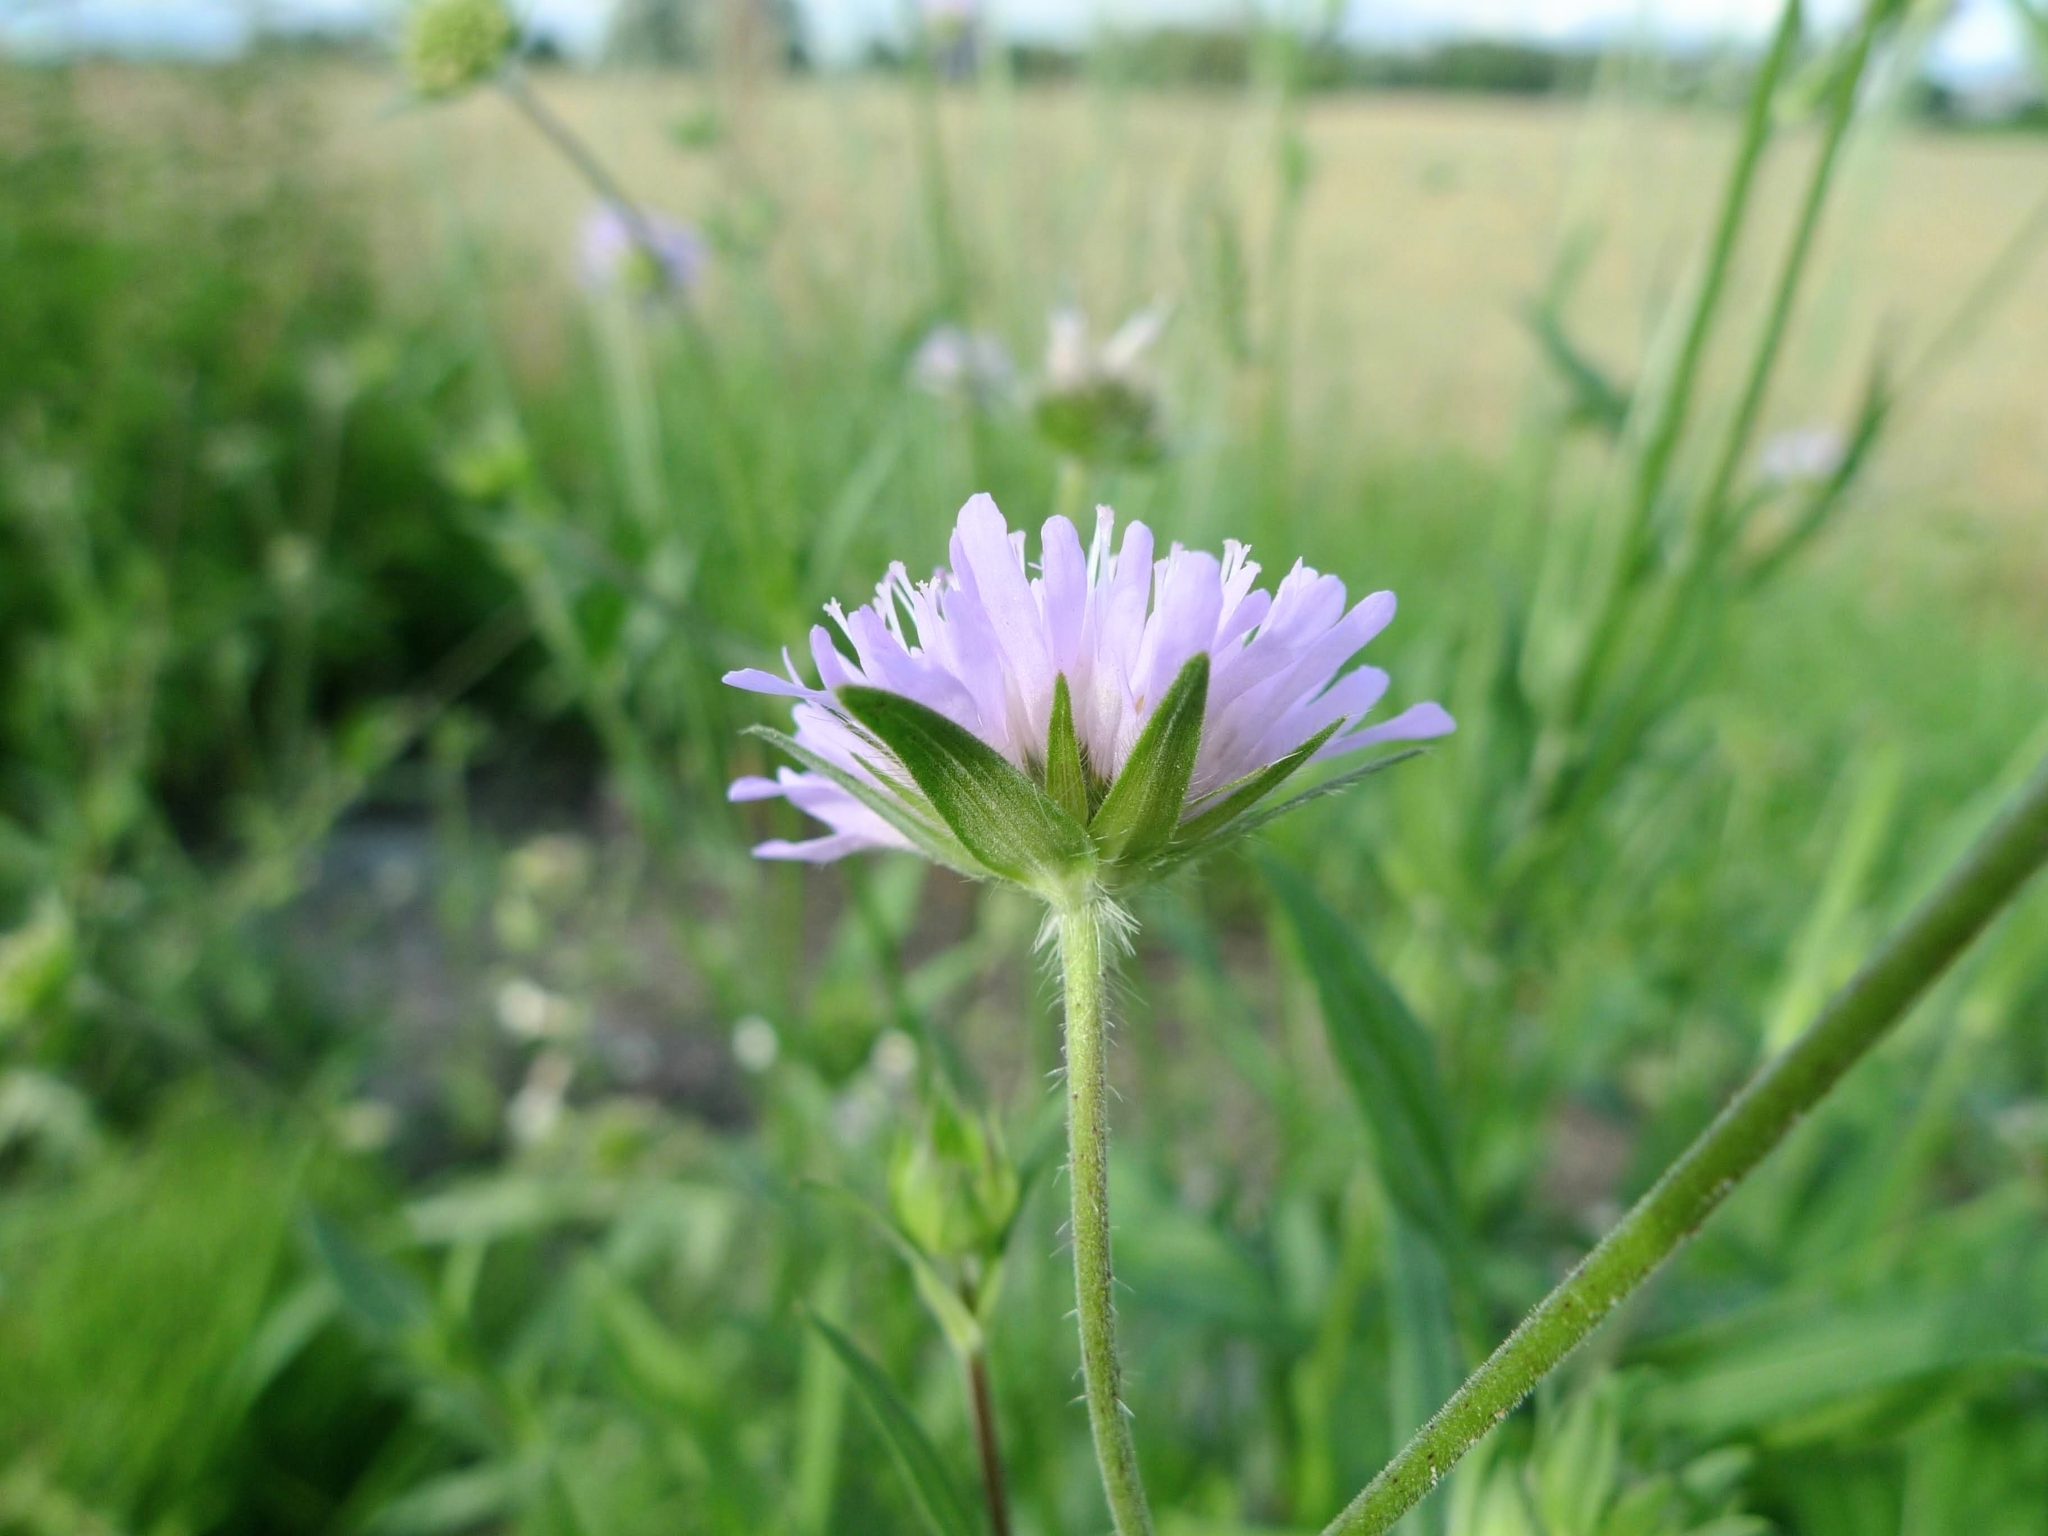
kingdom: Plantae
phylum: Tracheophyta
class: Magnoliopsida
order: Dipsacales
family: Caprifoliaceae
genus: Knautia
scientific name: Knautia arvensis
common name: Field scabiosa
